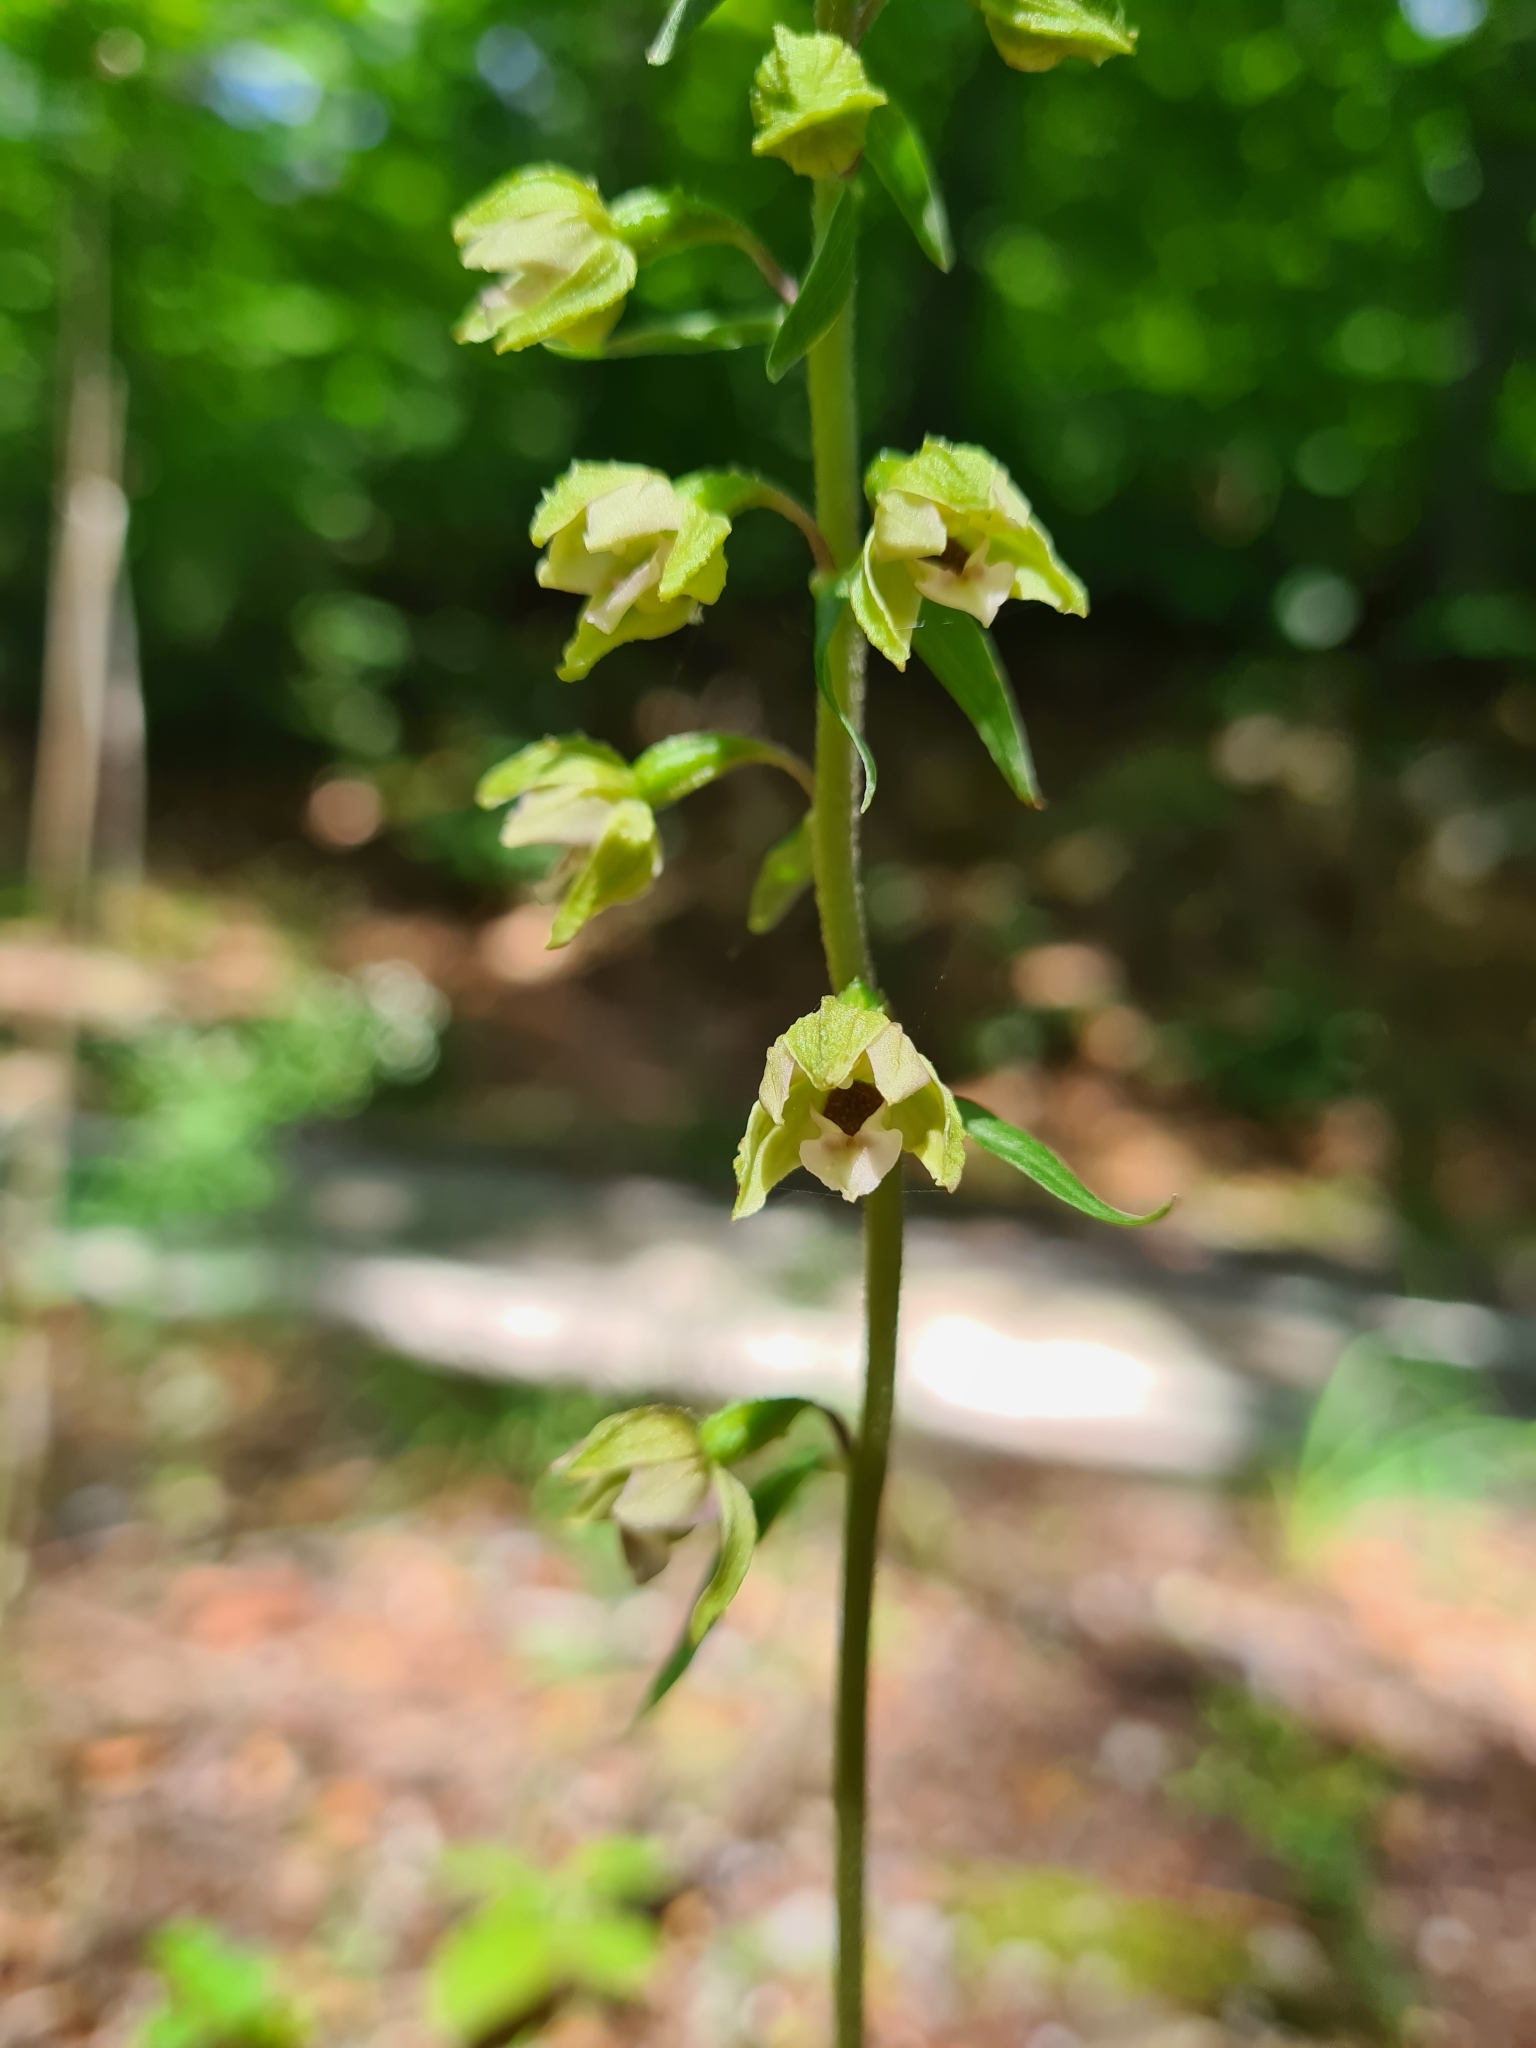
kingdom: Plantae
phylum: Tracheophyta
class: Liliopsida
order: Asparagales
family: Orchidaceae
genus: Epipactis
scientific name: Epipactis helleborine
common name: Broad-leaved helleborine
